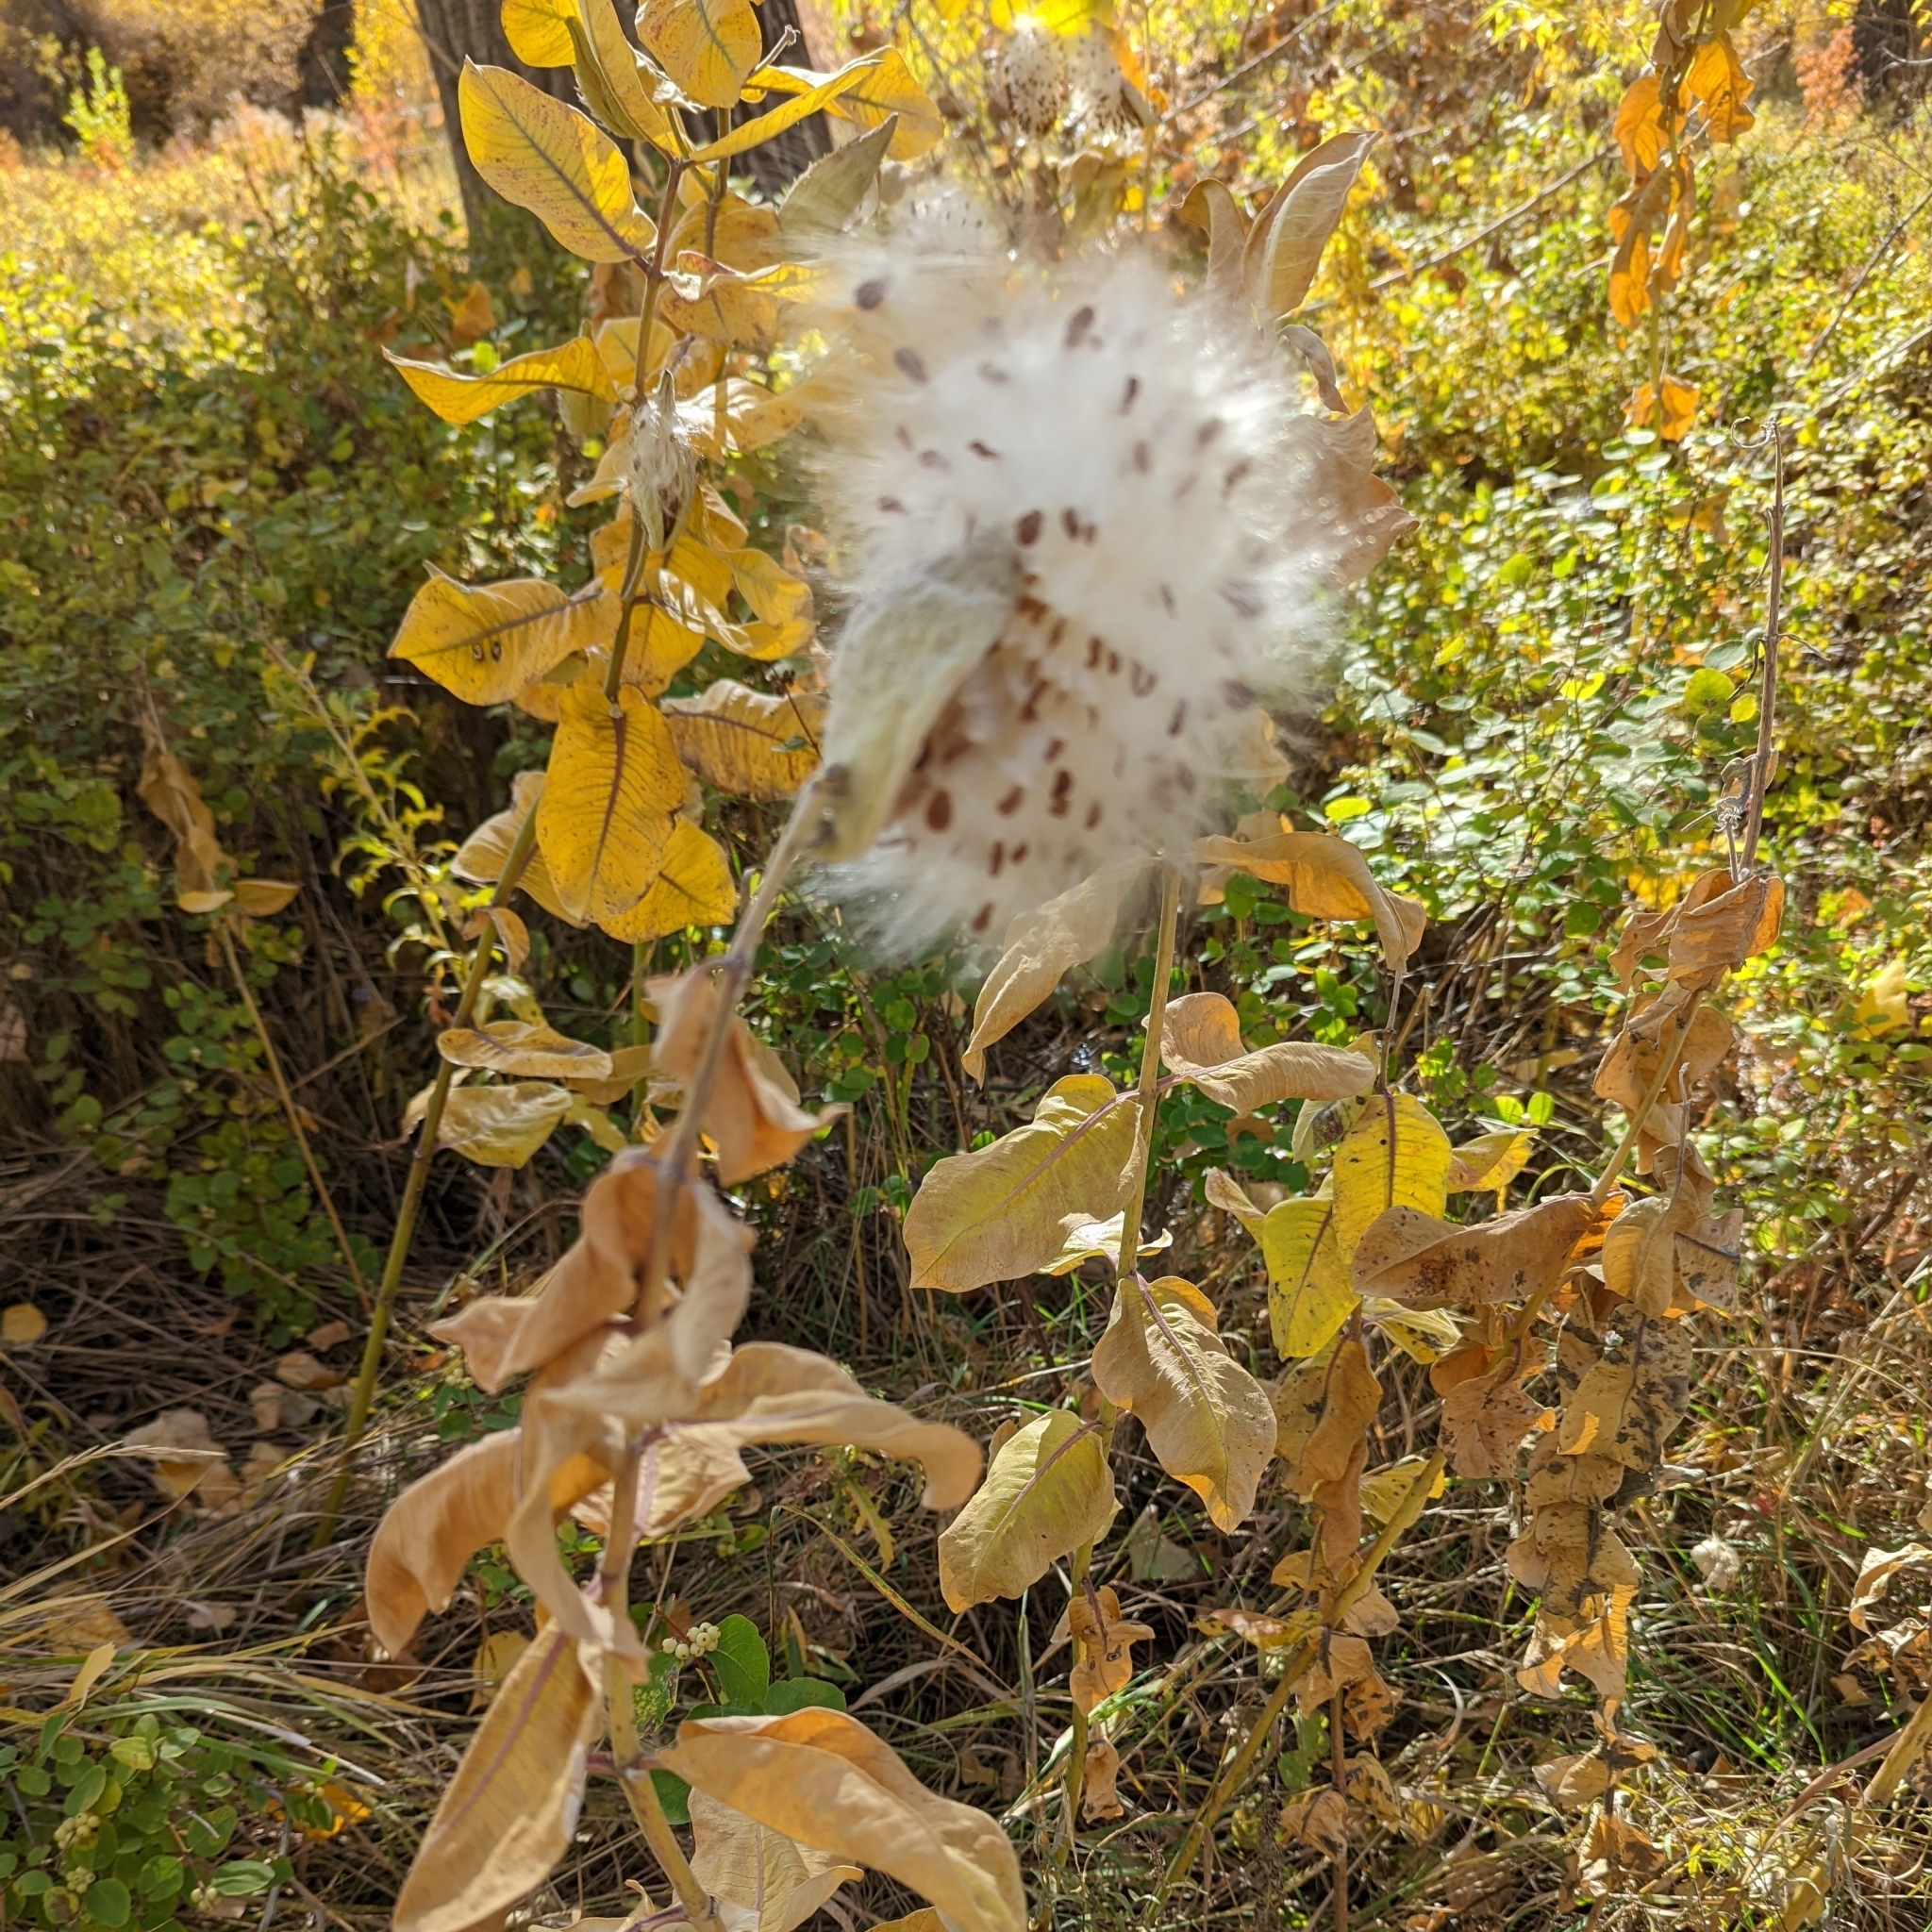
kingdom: Plantae
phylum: Tracheophyta
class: Magnoliopsida
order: Gentianales
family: Apocynaceae
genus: Asclepias
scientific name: Asclepias speciosa
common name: Showy milkweed
